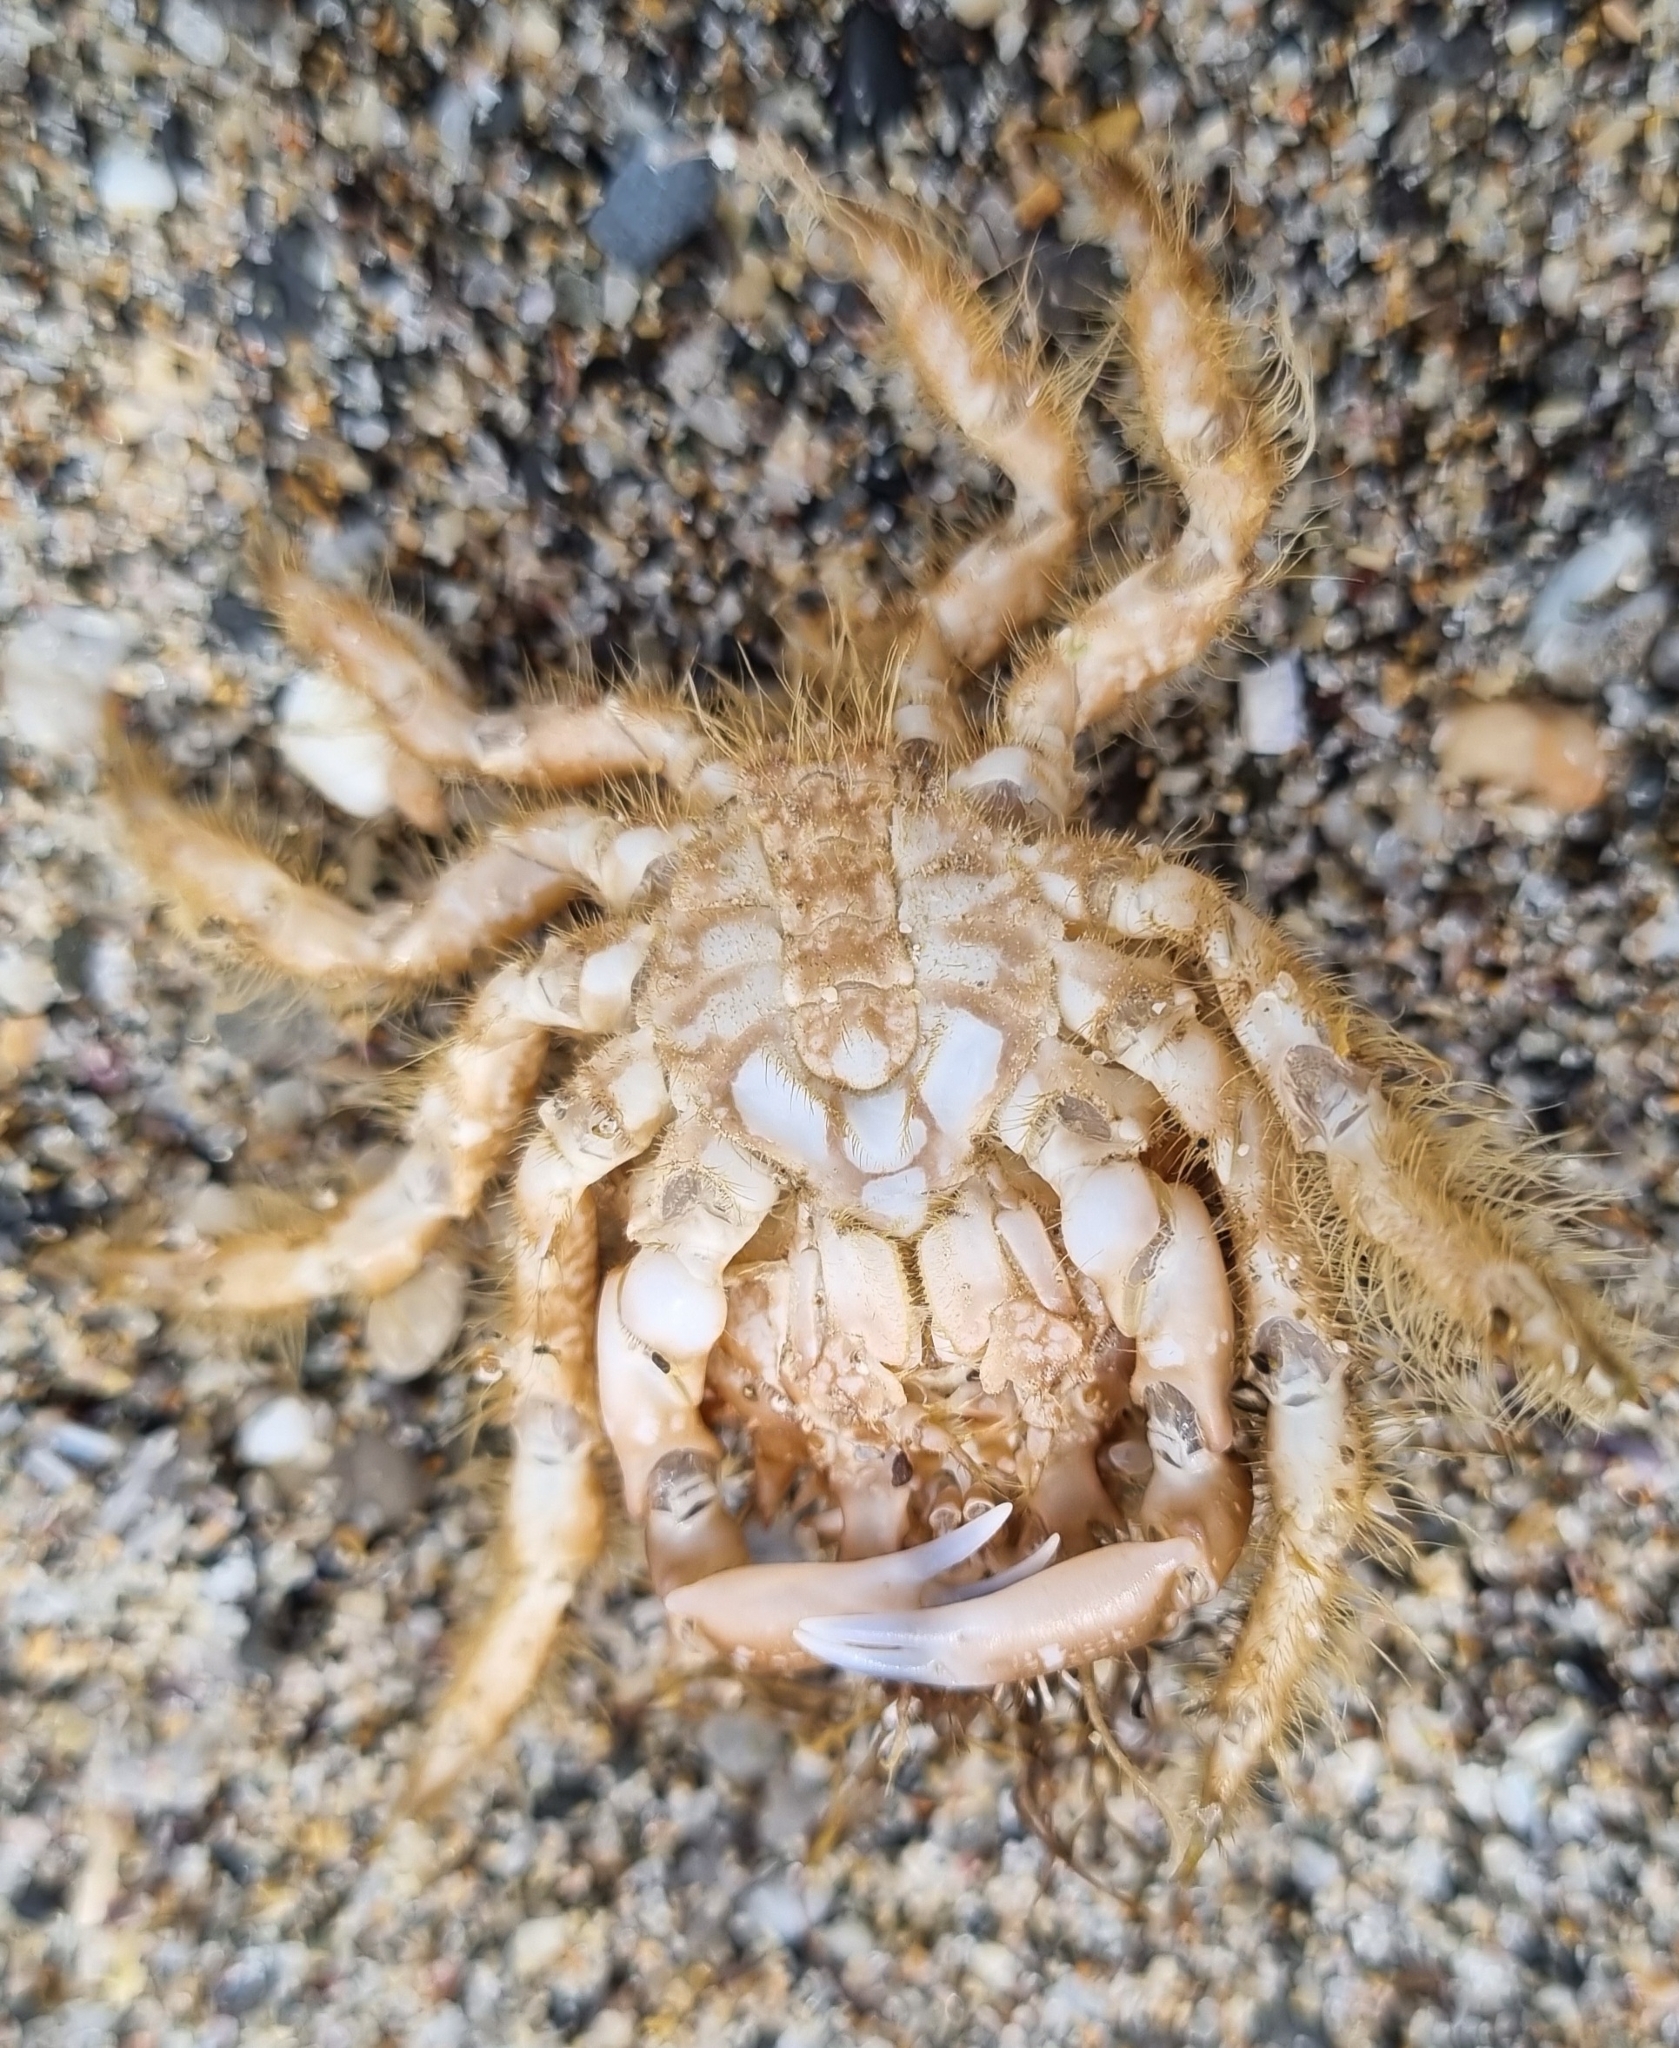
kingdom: Animalia
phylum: Arthropoda
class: Malacostraca
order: Decapoda
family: Majidae
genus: Notomithrax
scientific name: Notomithrax ursus
